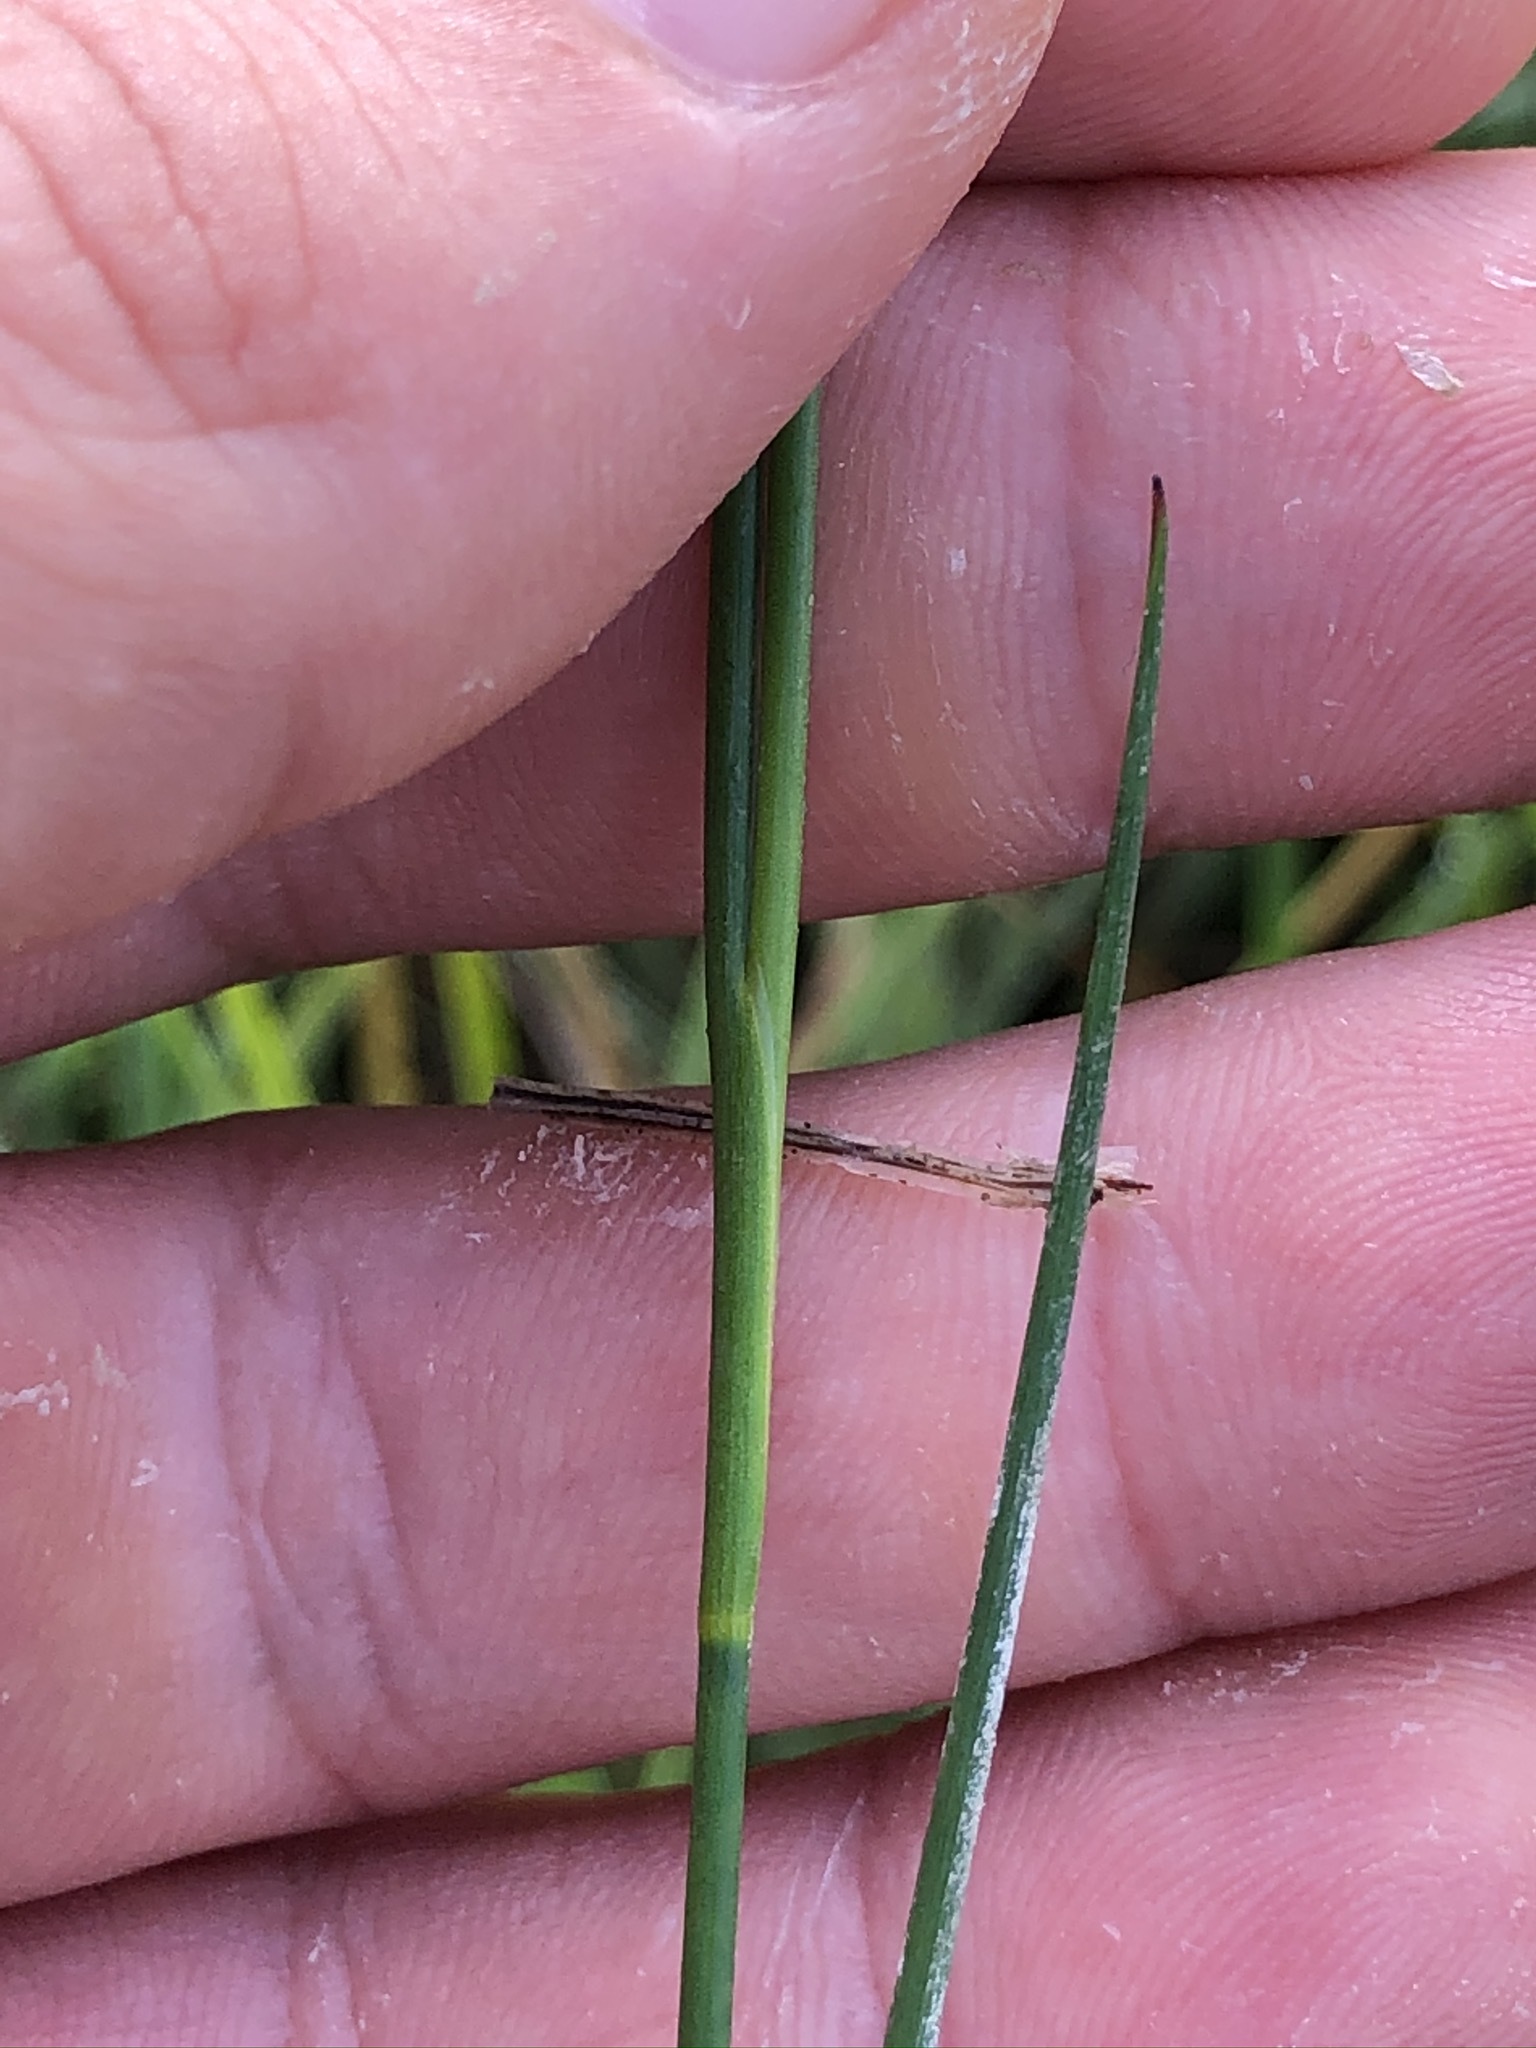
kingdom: Plantae
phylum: Tracheophyta
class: Liliopsida
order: Poales
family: Juncaceae
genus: Juncus
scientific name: Juncus articulatus
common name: Jointed rush
